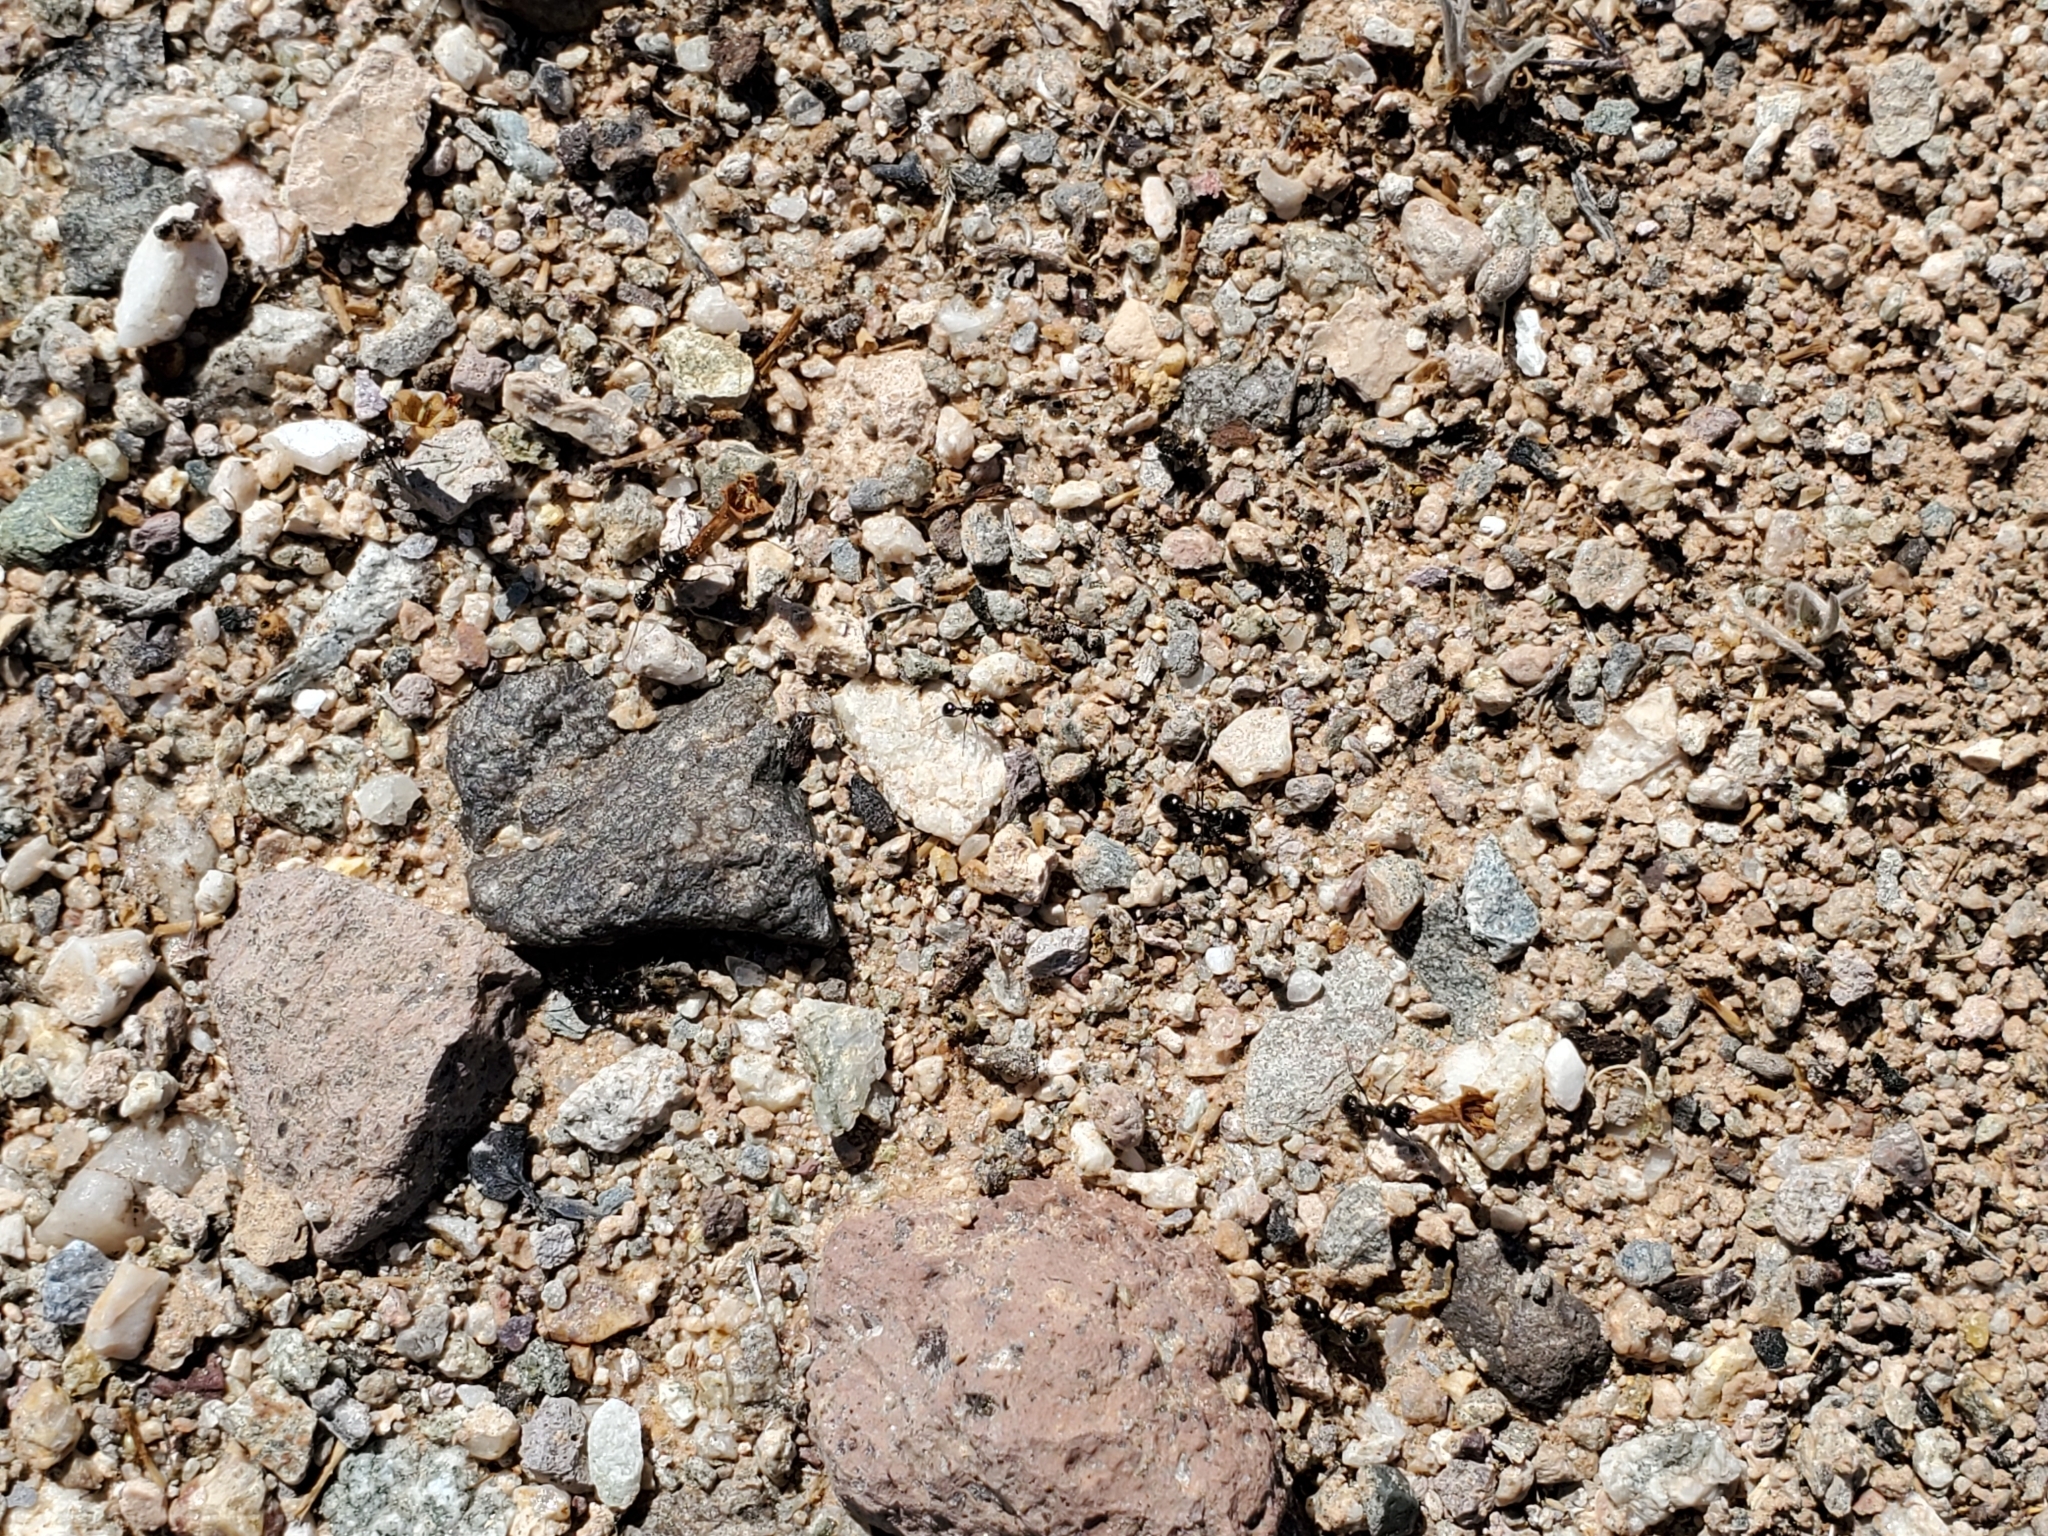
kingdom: Animalia
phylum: Arthropoda
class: Insecta
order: Hymenoptera
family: Formicidae
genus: Messor
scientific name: Messor pergandei
